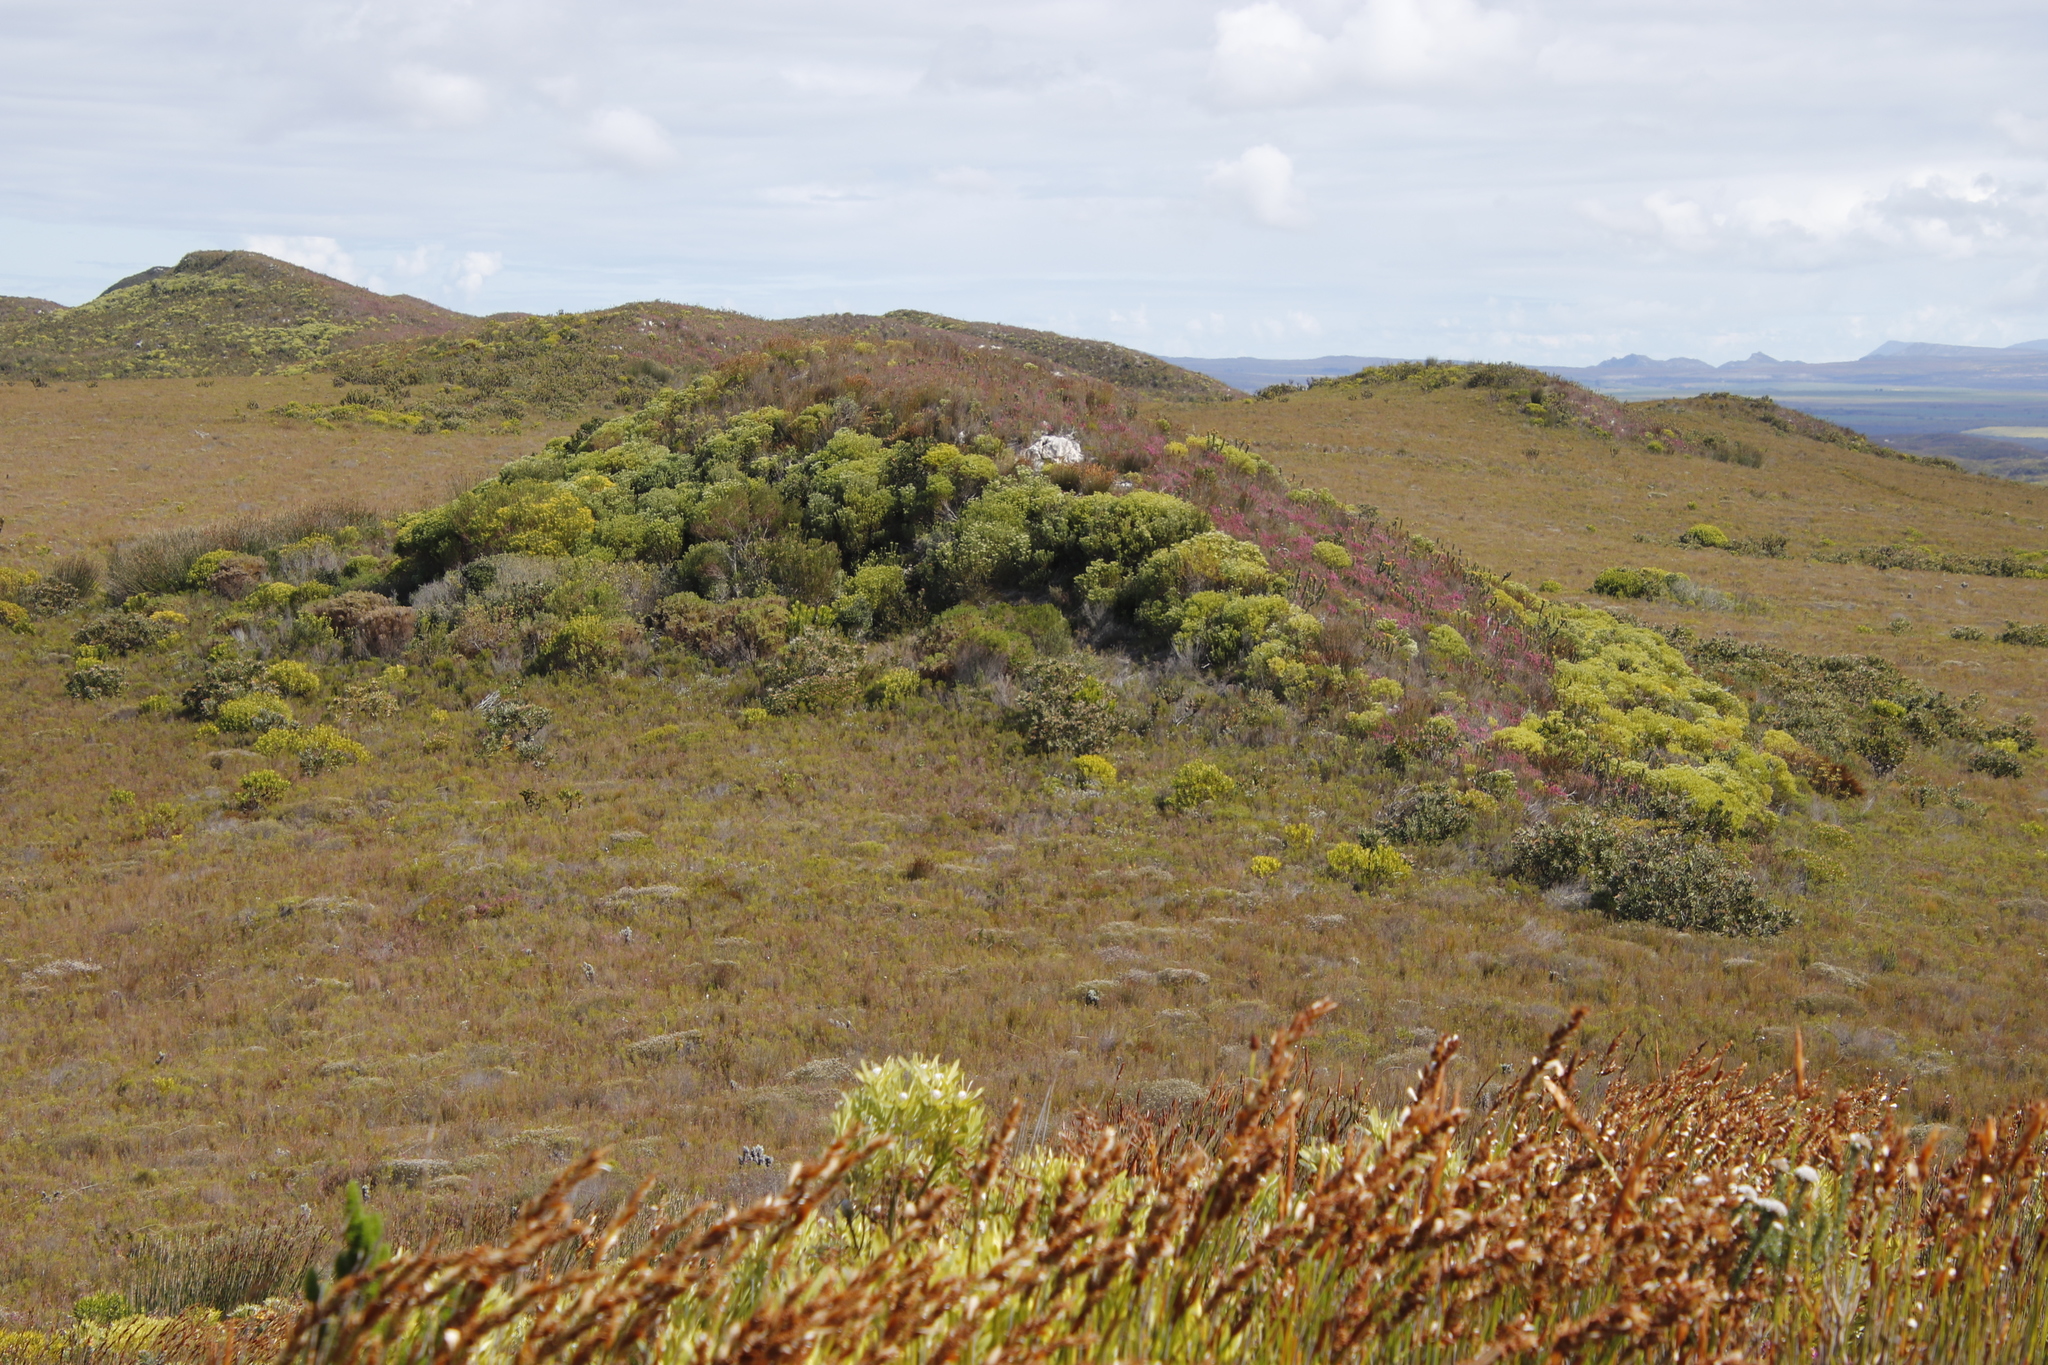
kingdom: Plantae
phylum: Tracheophyta
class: Magnoliopsida
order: Proteales
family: Proteaceae
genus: Leucadendron
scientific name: Leucadendron meridianum
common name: Limestone conebush
